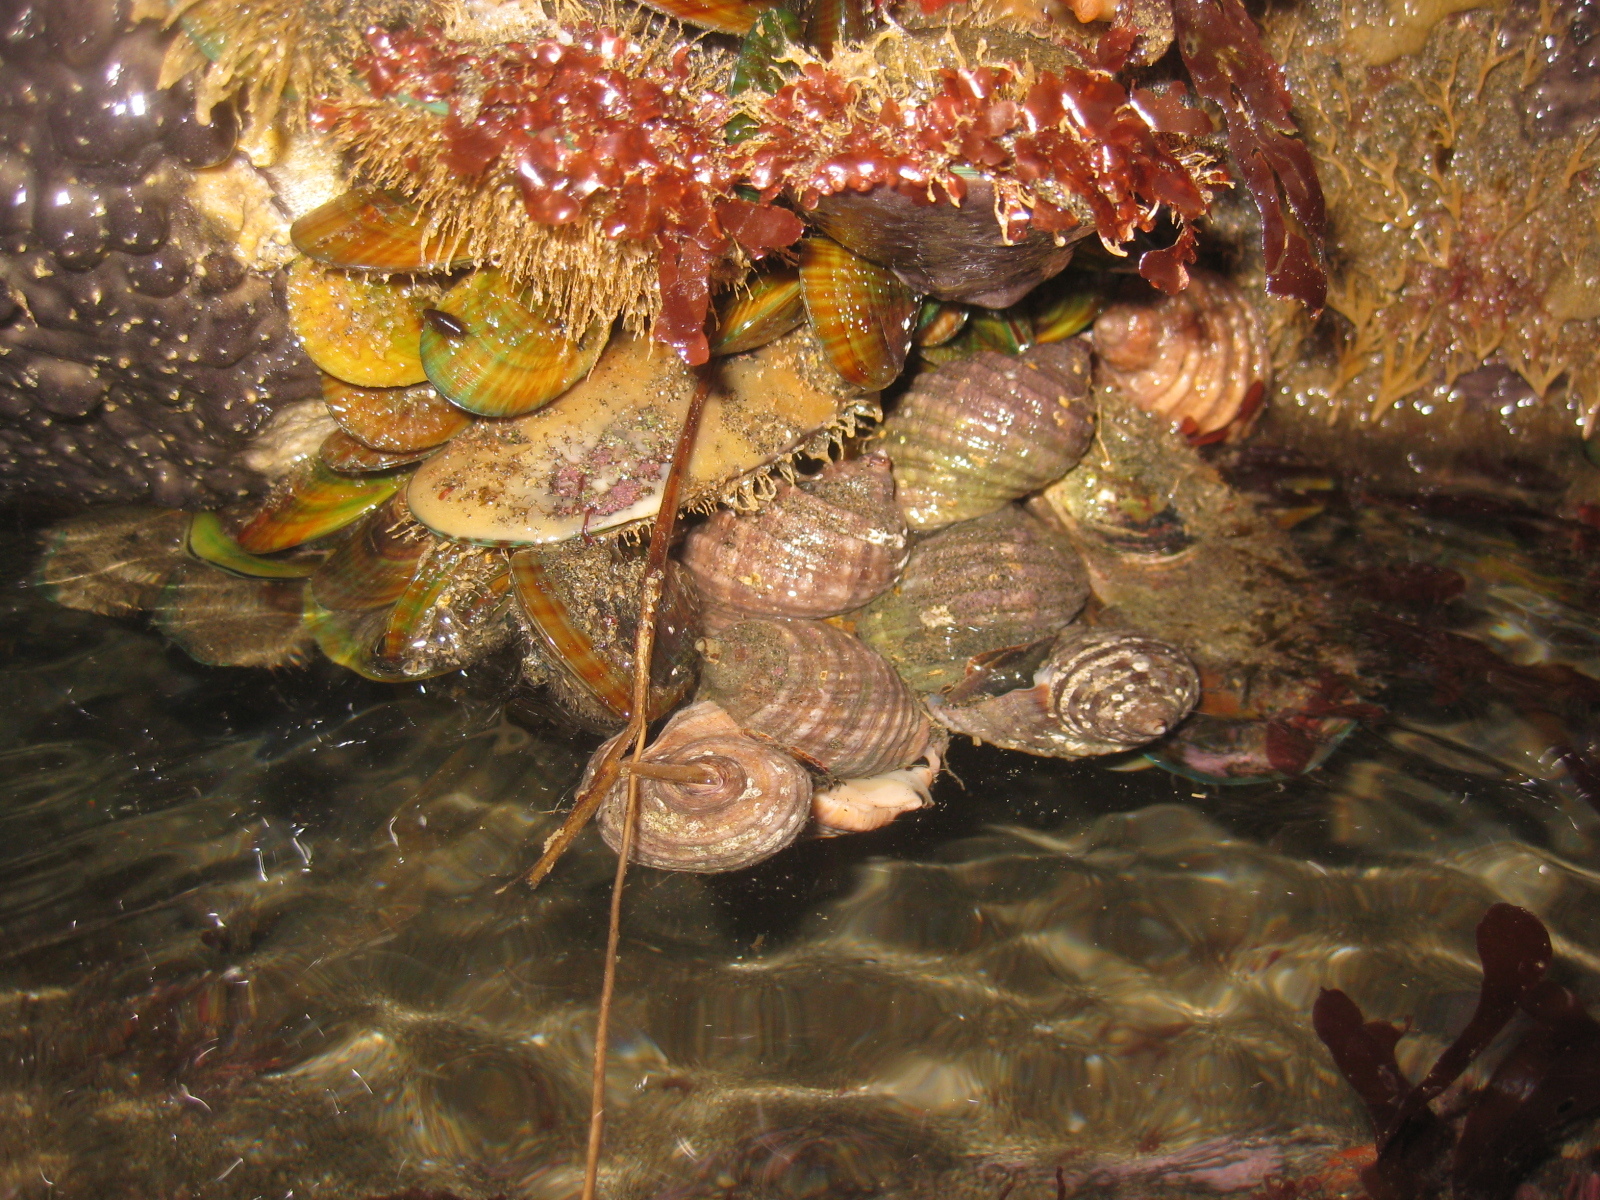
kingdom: Animalia
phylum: Mollusca
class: Gastropoda
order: Neogastropoda
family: Muricidae
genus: Dicathais
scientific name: Dicathais orbita
